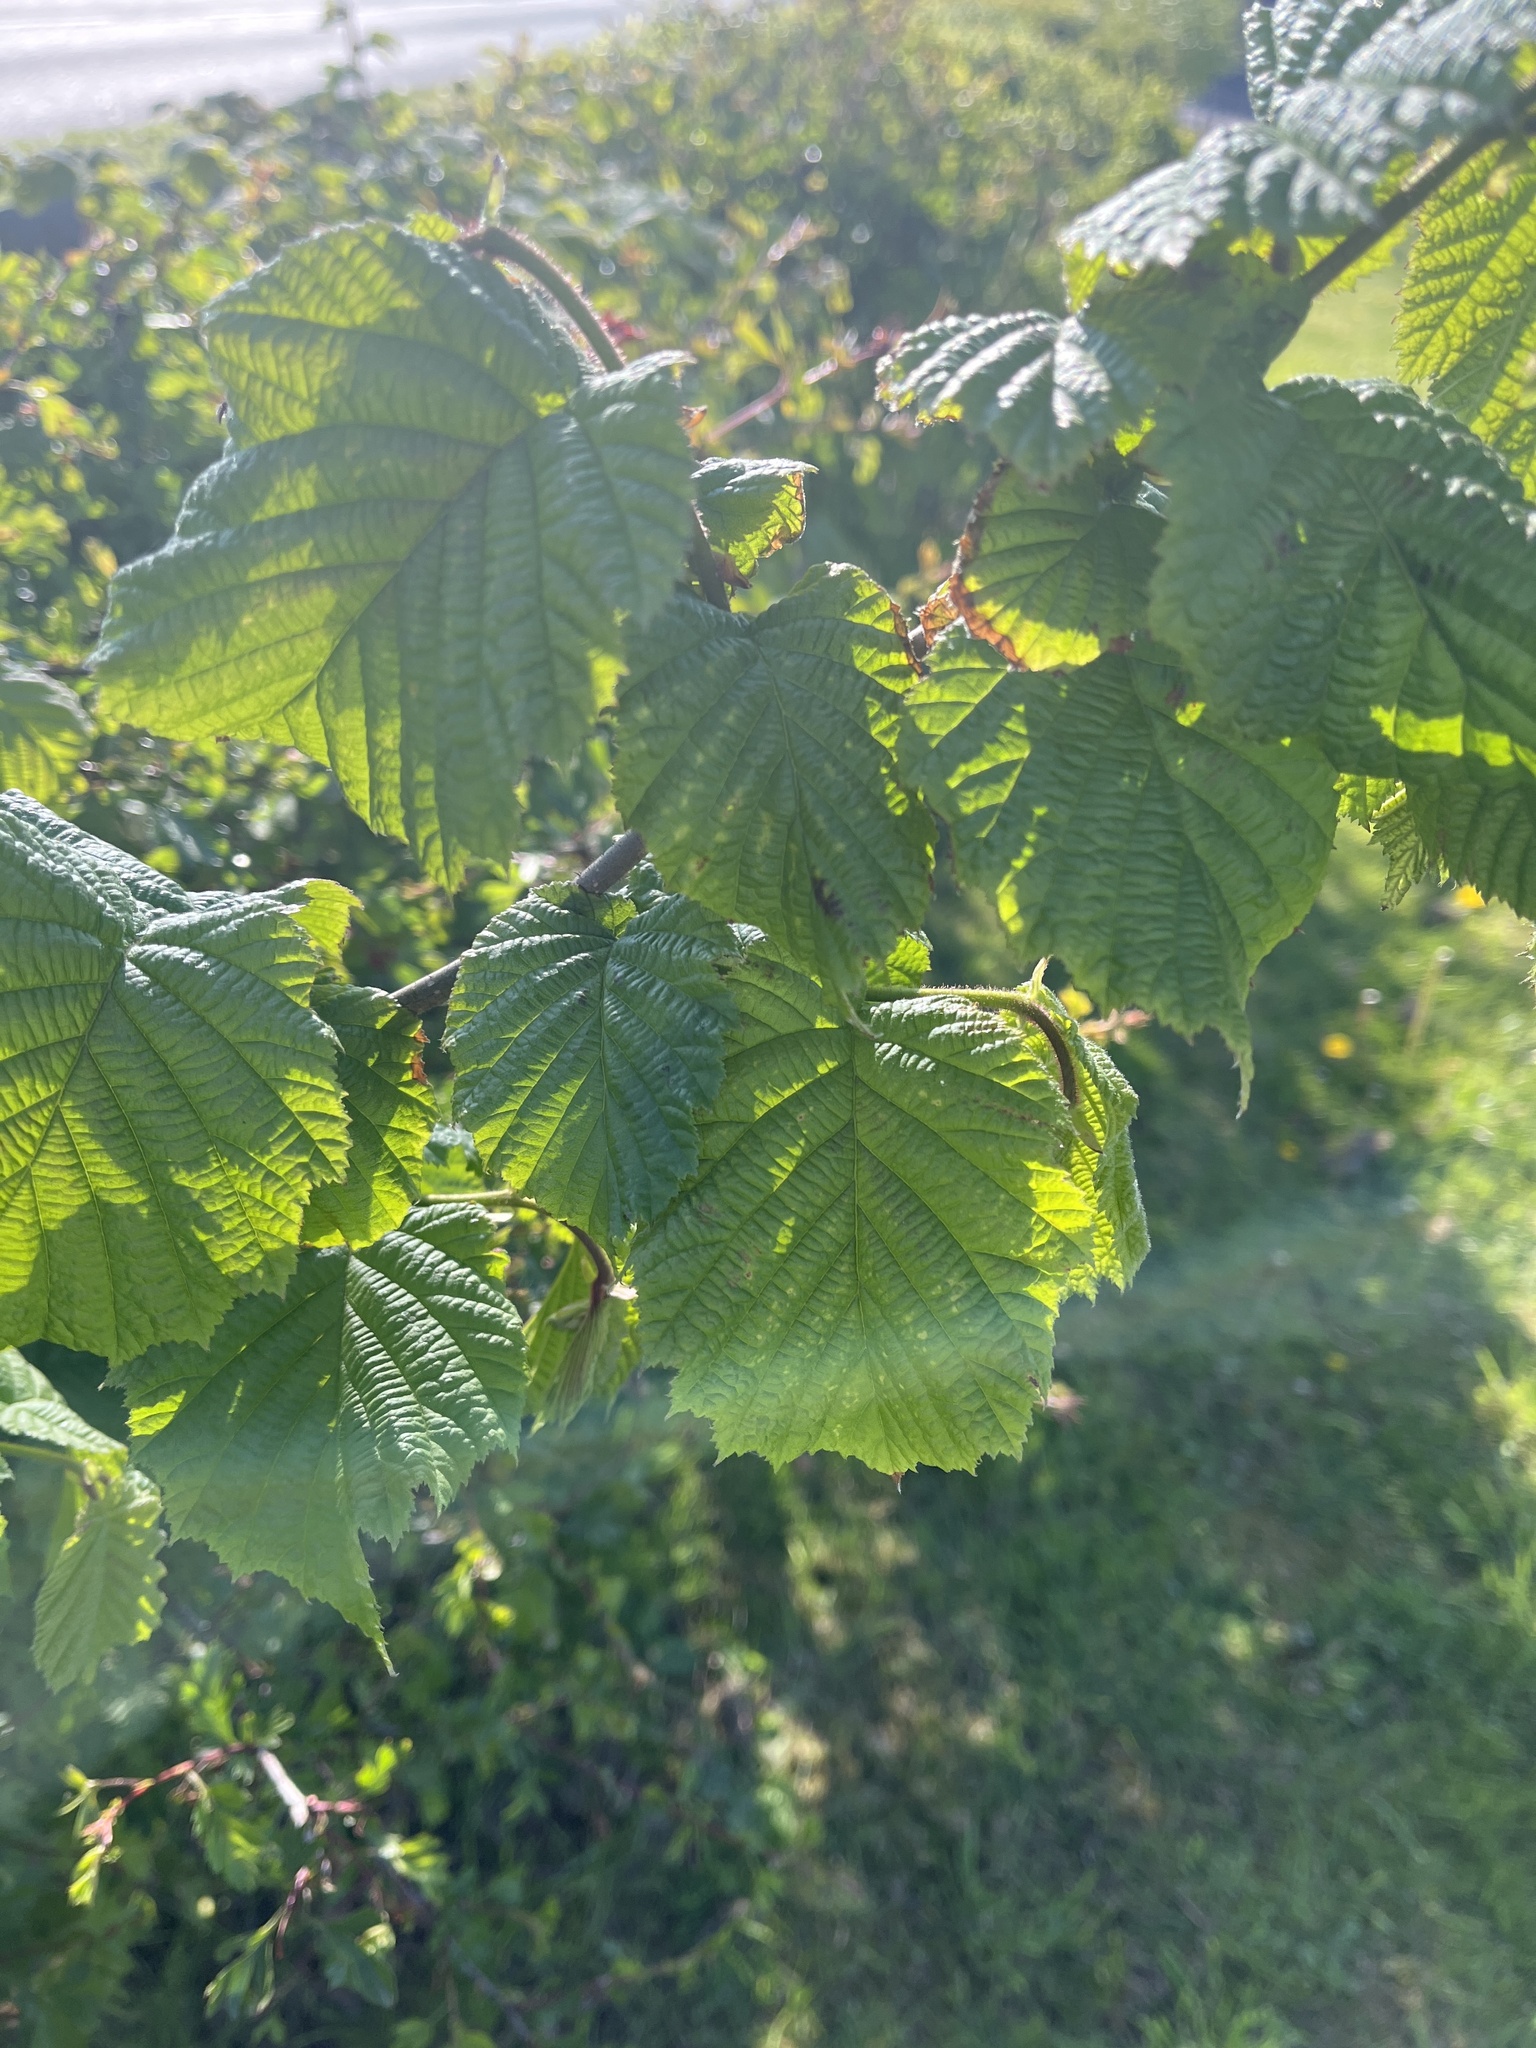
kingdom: Plantae
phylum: Tracheophyta
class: Magnoliopsida
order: Fagales
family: Betulaceae
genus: Corylus
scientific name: Corylus avellana
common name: European hazel
